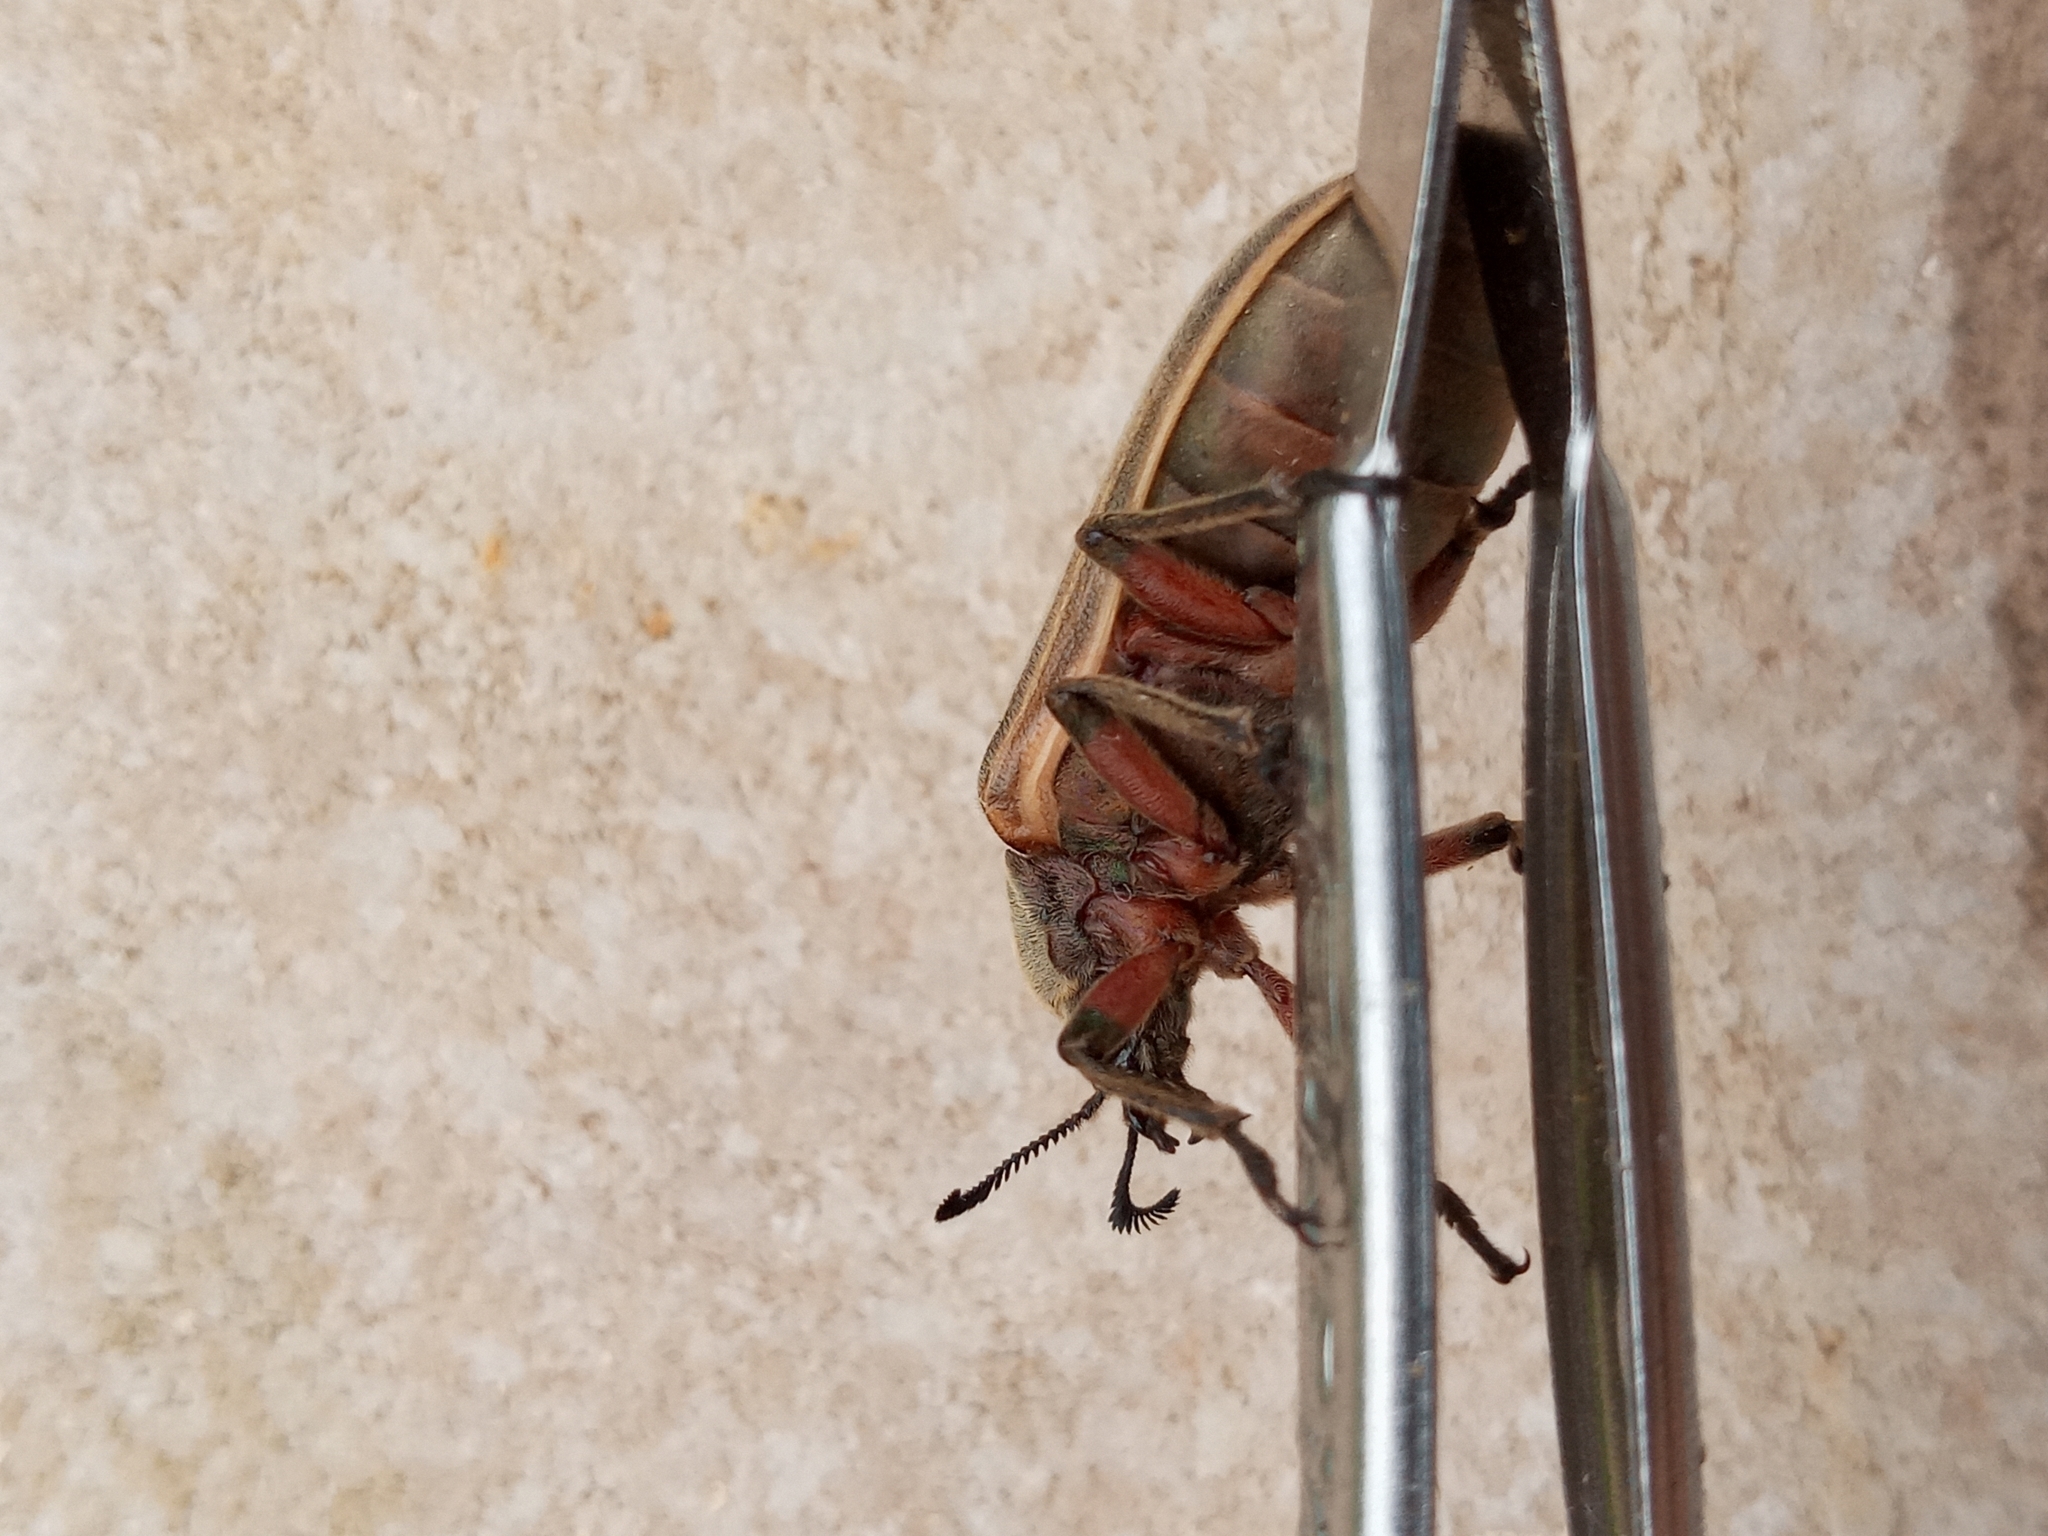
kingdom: Animalia
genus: Polytomus
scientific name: Polytomus
